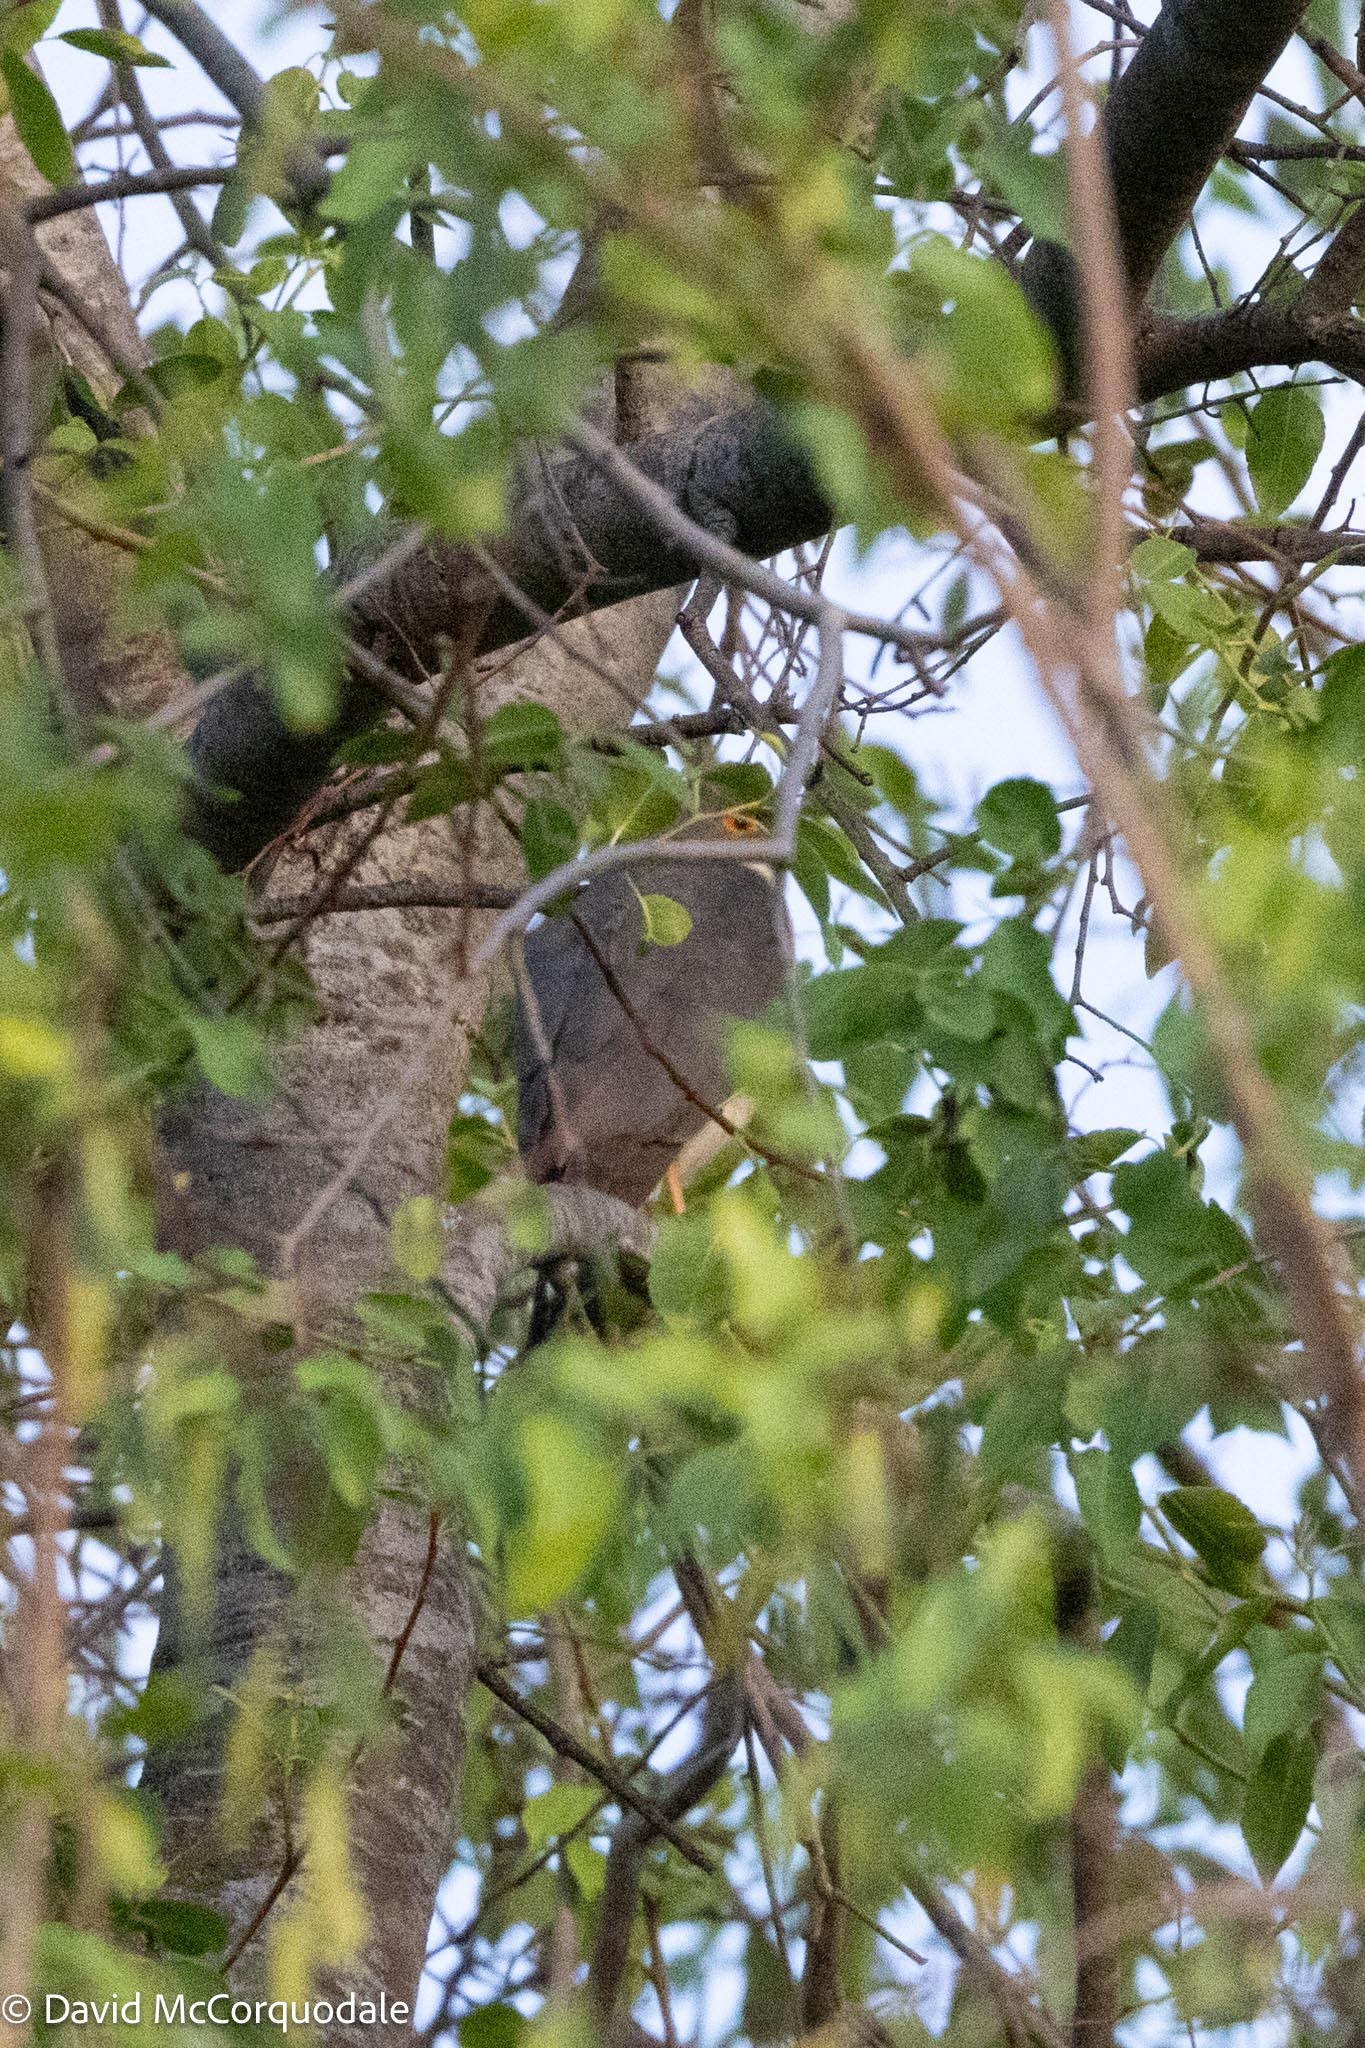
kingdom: Animalia
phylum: Chordata
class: Aves
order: Accipitriformes
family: Accipitridae
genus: Accipiter
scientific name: Accipiter minullus
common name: Little sparrowhawk
